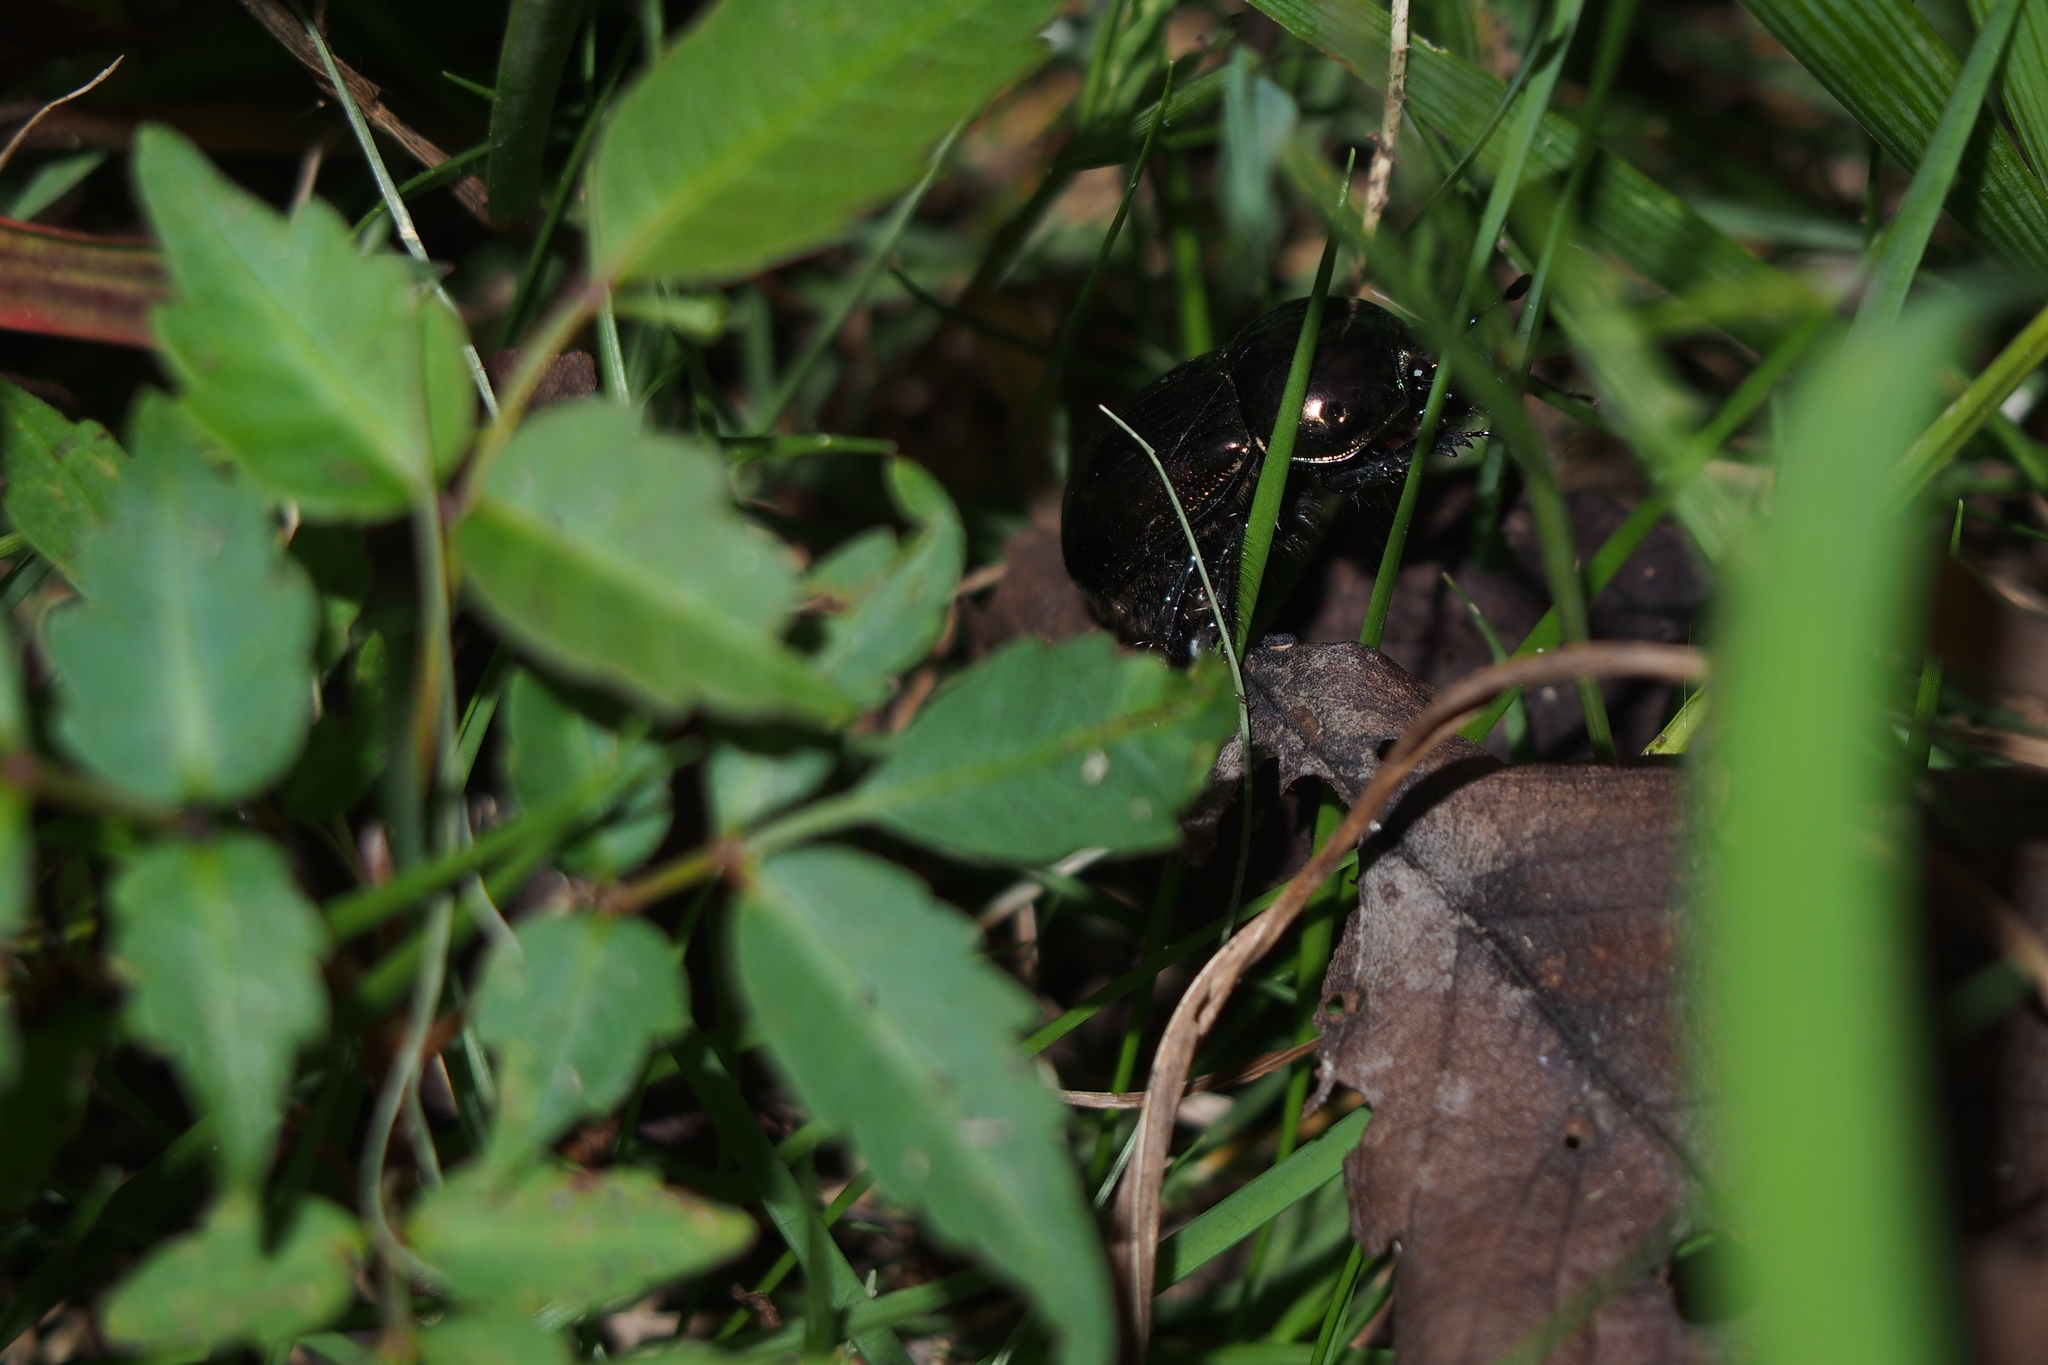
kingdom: Animalia
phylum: Arthropoda
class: Insecta
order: Coleoptera
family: Geotrupidae
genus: Phelotrupes
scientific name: Phelotrupes laevistriatus
